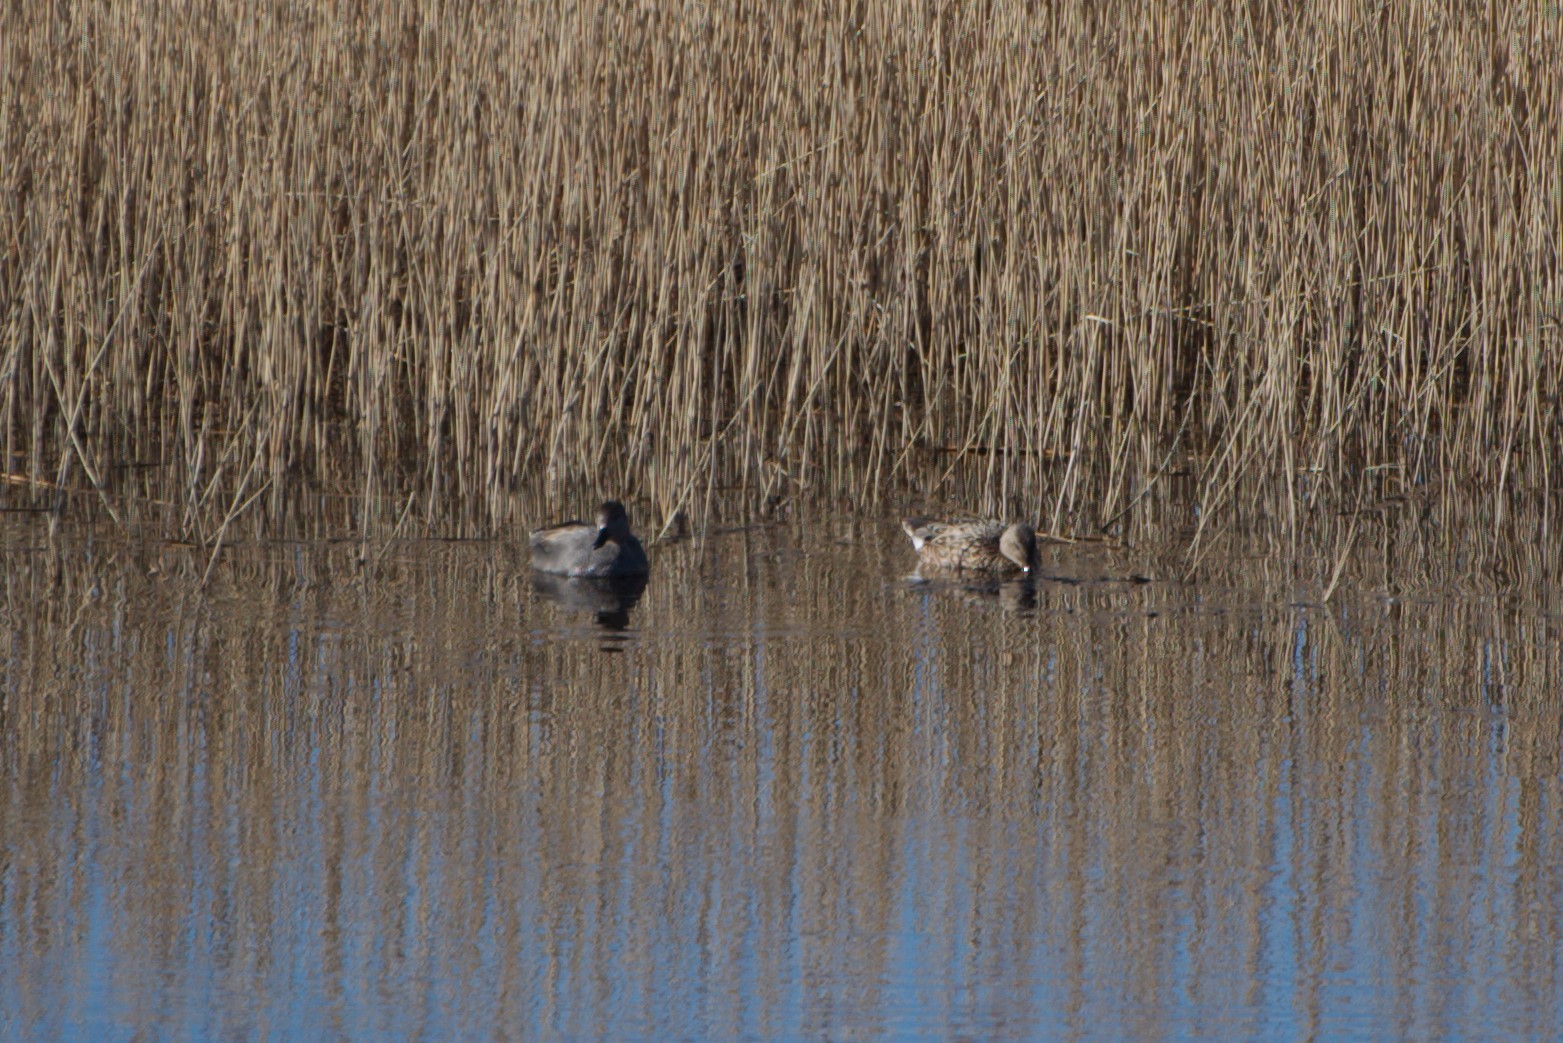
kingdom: Animalia
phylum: Chordata
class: Aves
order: Anseriformes
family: Anatidae
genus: Mareca
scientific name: Mareca strepera
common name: Gadwall
